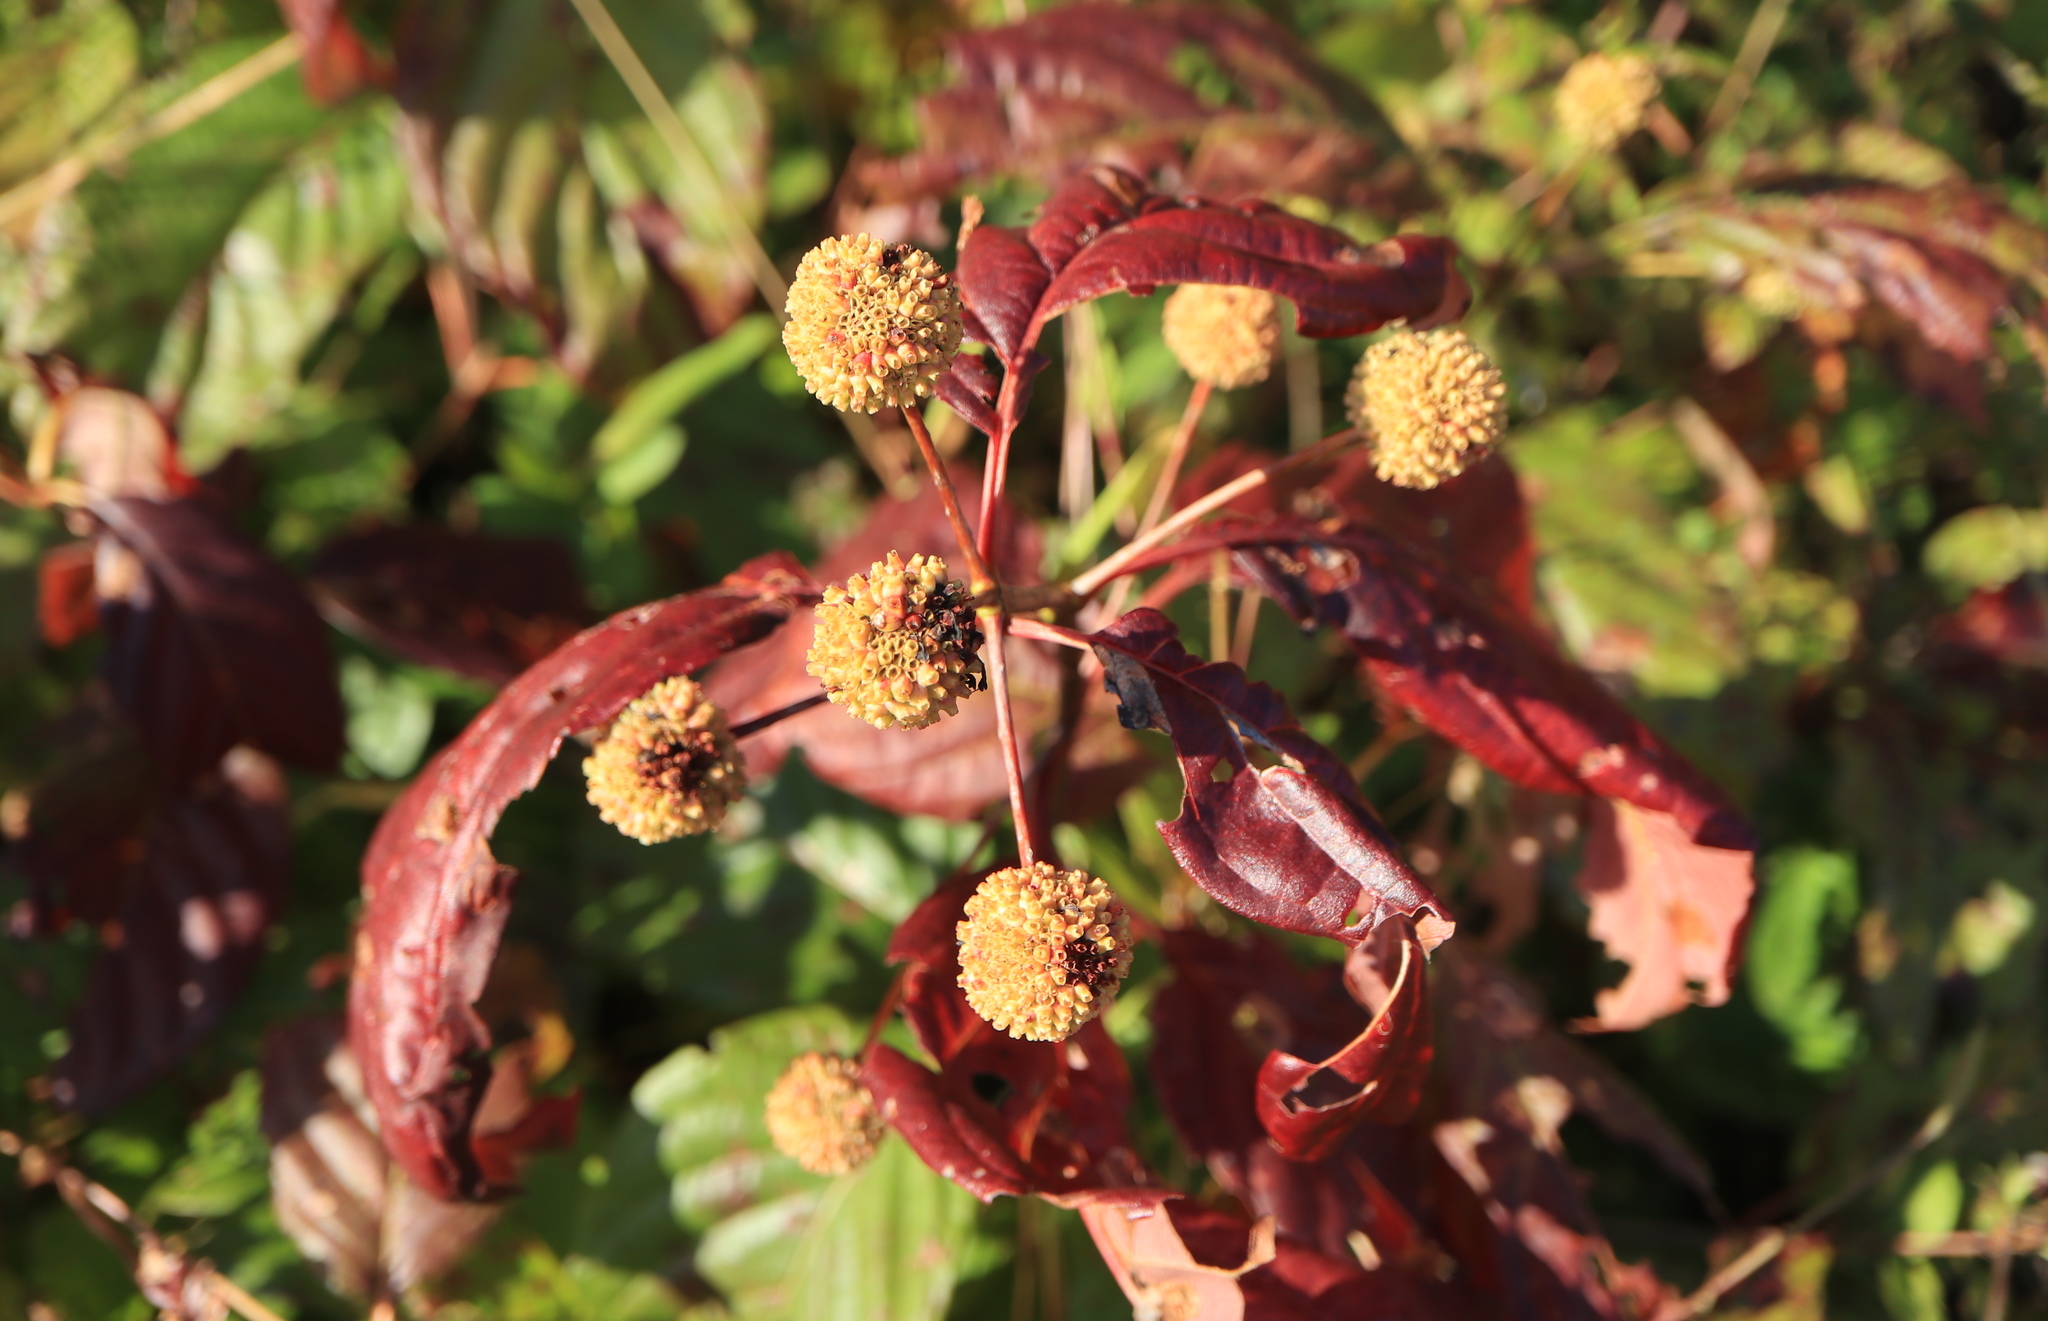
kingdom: Plantae
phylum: Tracheophyta
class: Magnoliopsida
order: Gentianales
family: Rubiaceae
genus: Cephalanthus
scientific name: Cephalanthus occidentalis
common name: Button-willow
